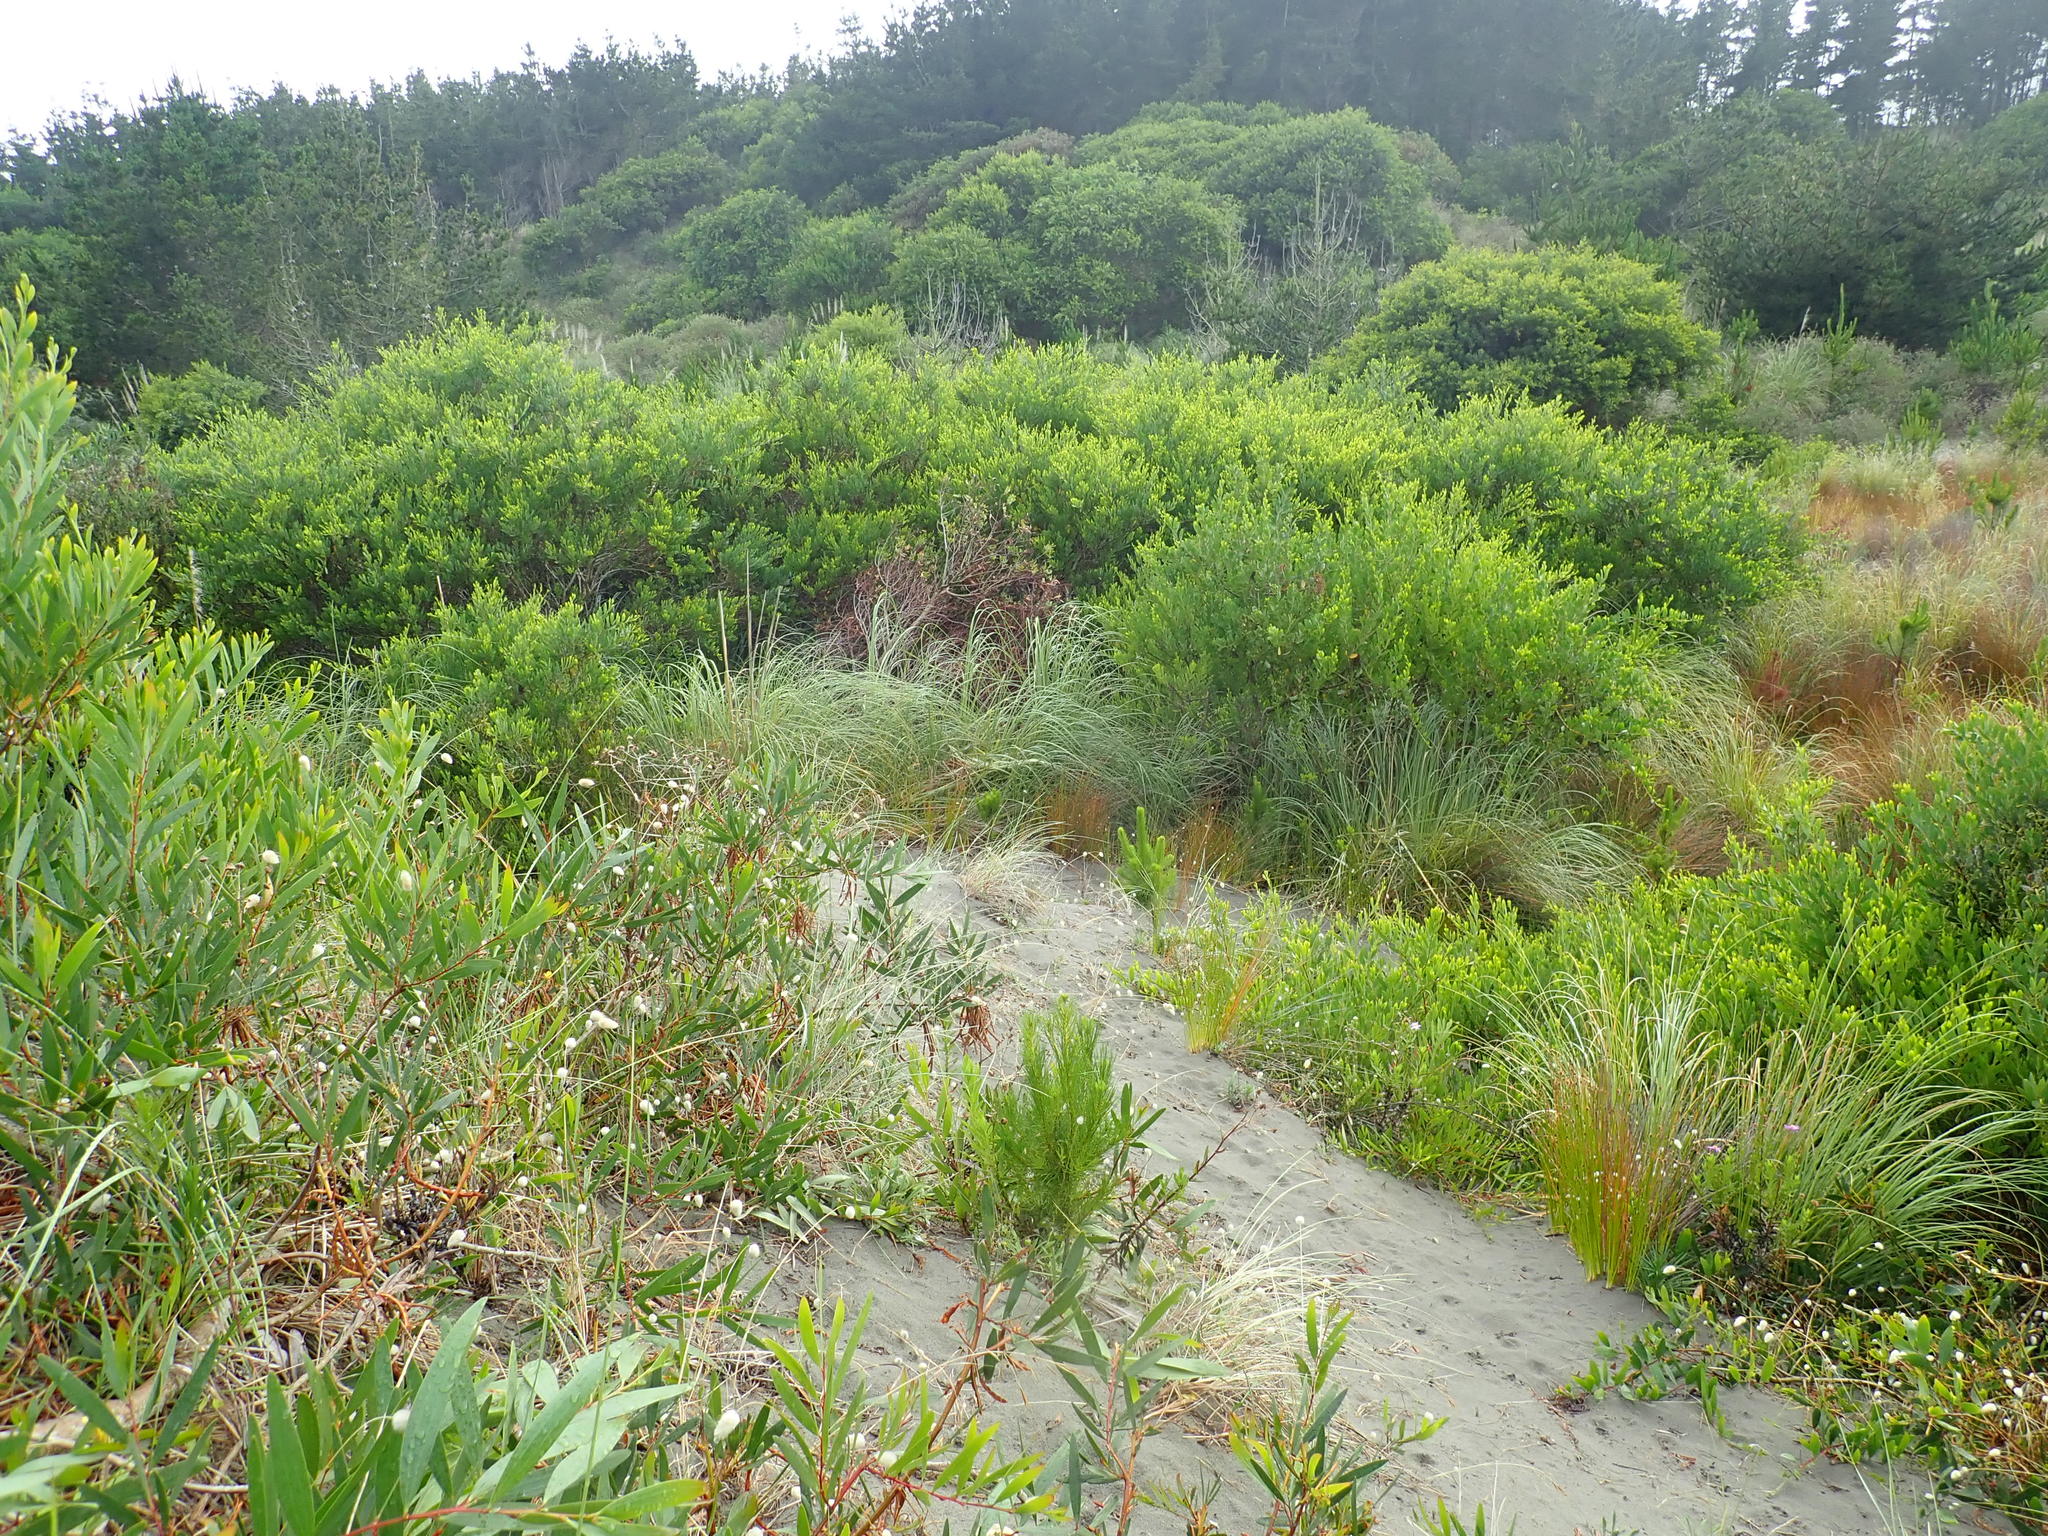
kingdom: Plantae
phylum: Tracheophyta
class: Magnoliopsida
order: Fabales
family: Fabaceae
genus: Acacia
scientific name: Acacia longifolia
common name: Sydney golden wattle
